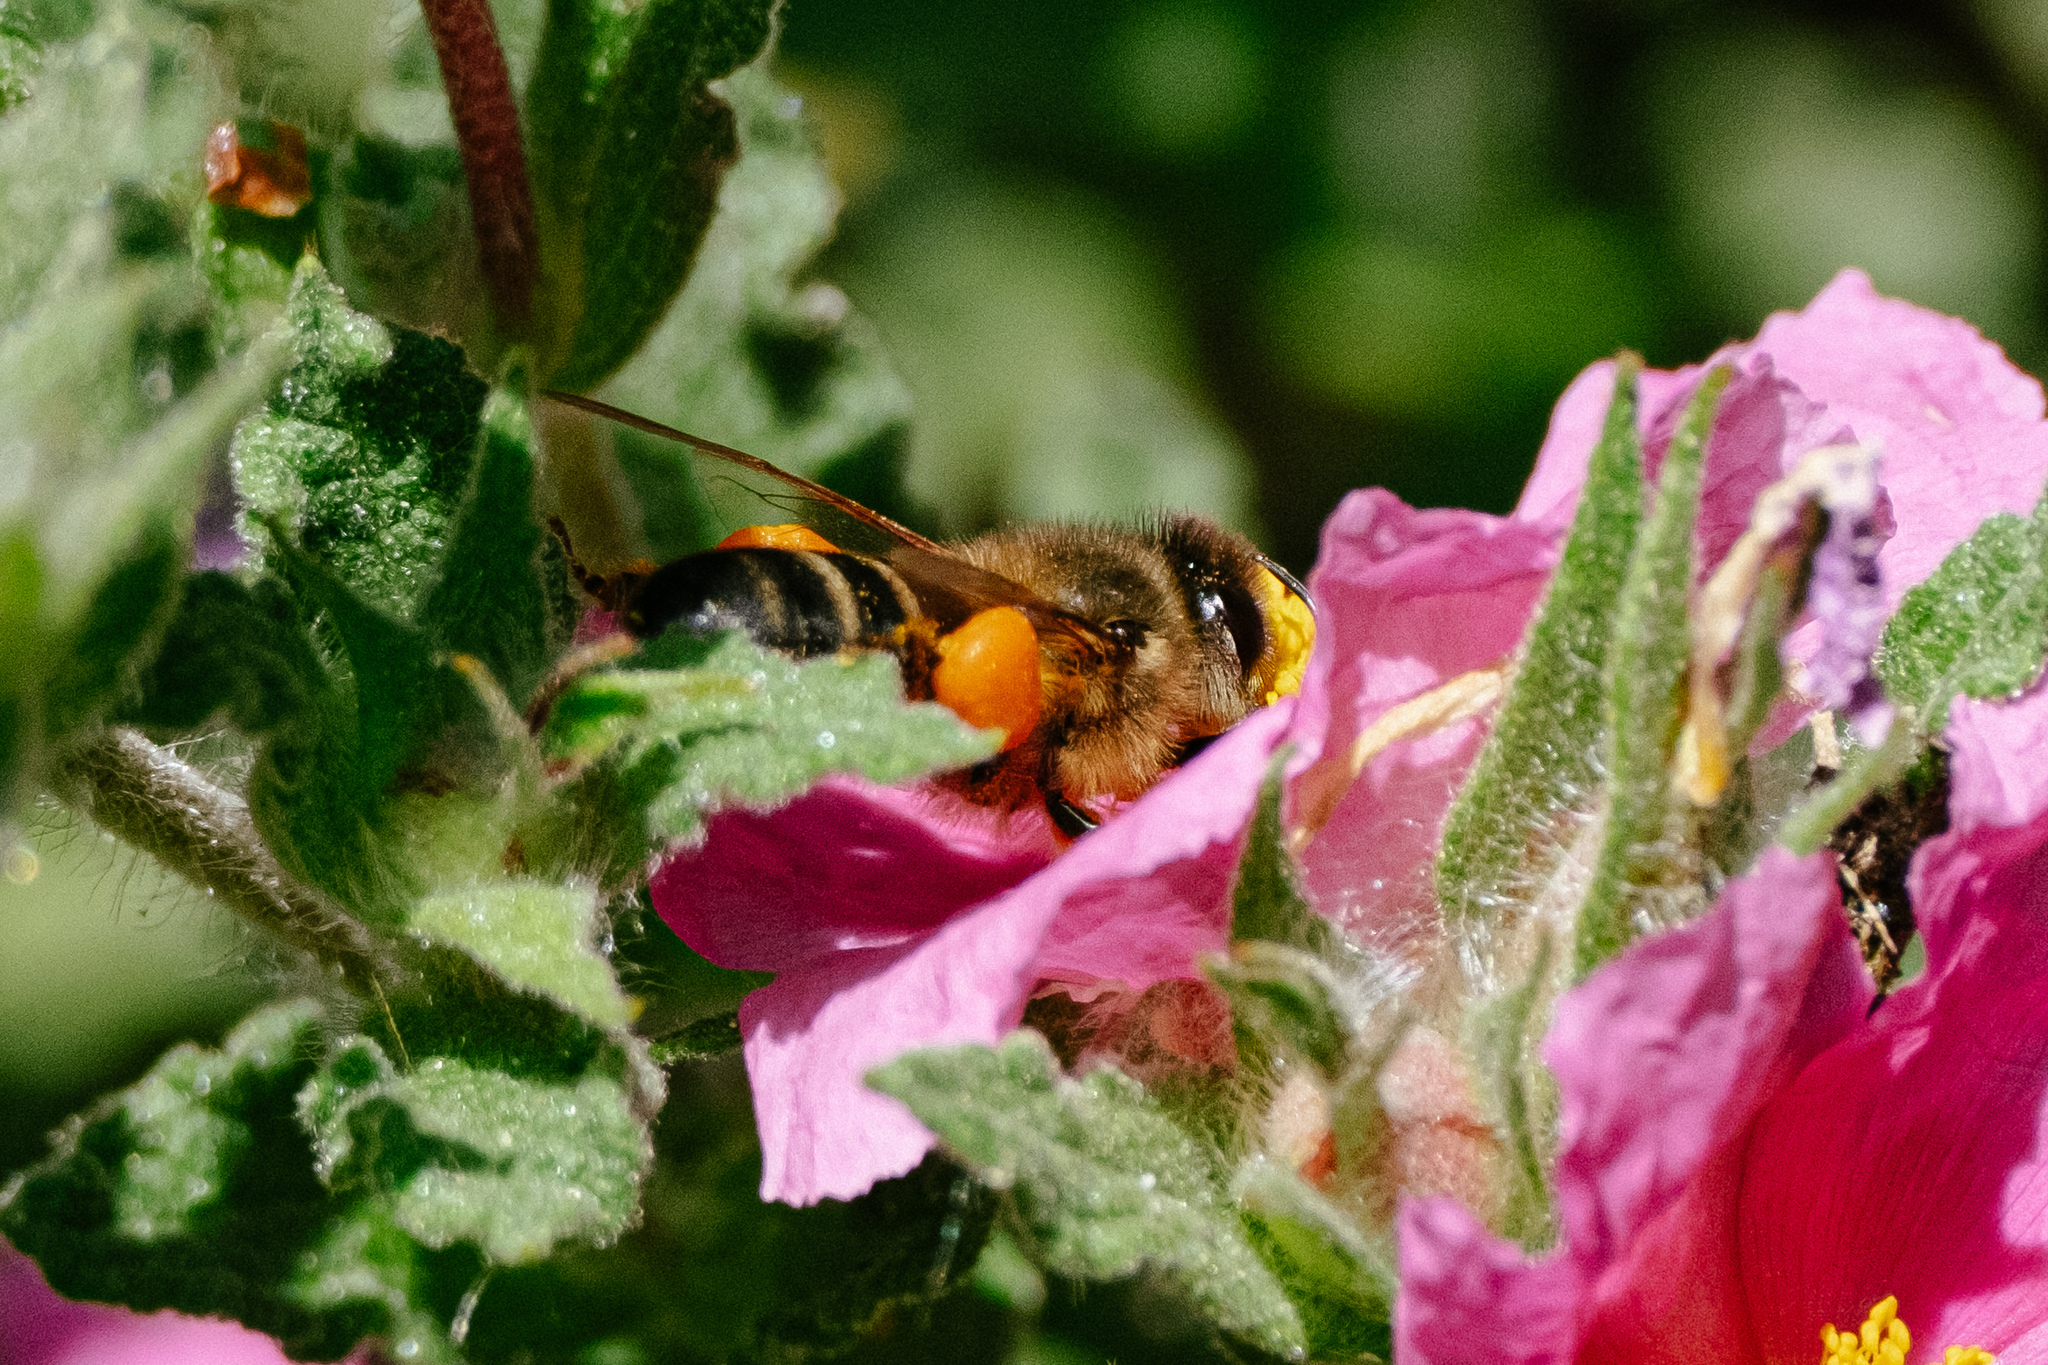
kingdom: Animalia
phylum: Arthropoda
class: Insecta
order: Hymenoptera
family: Apidae
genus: Apis
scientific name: Apis mellifera
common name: Honey bee
